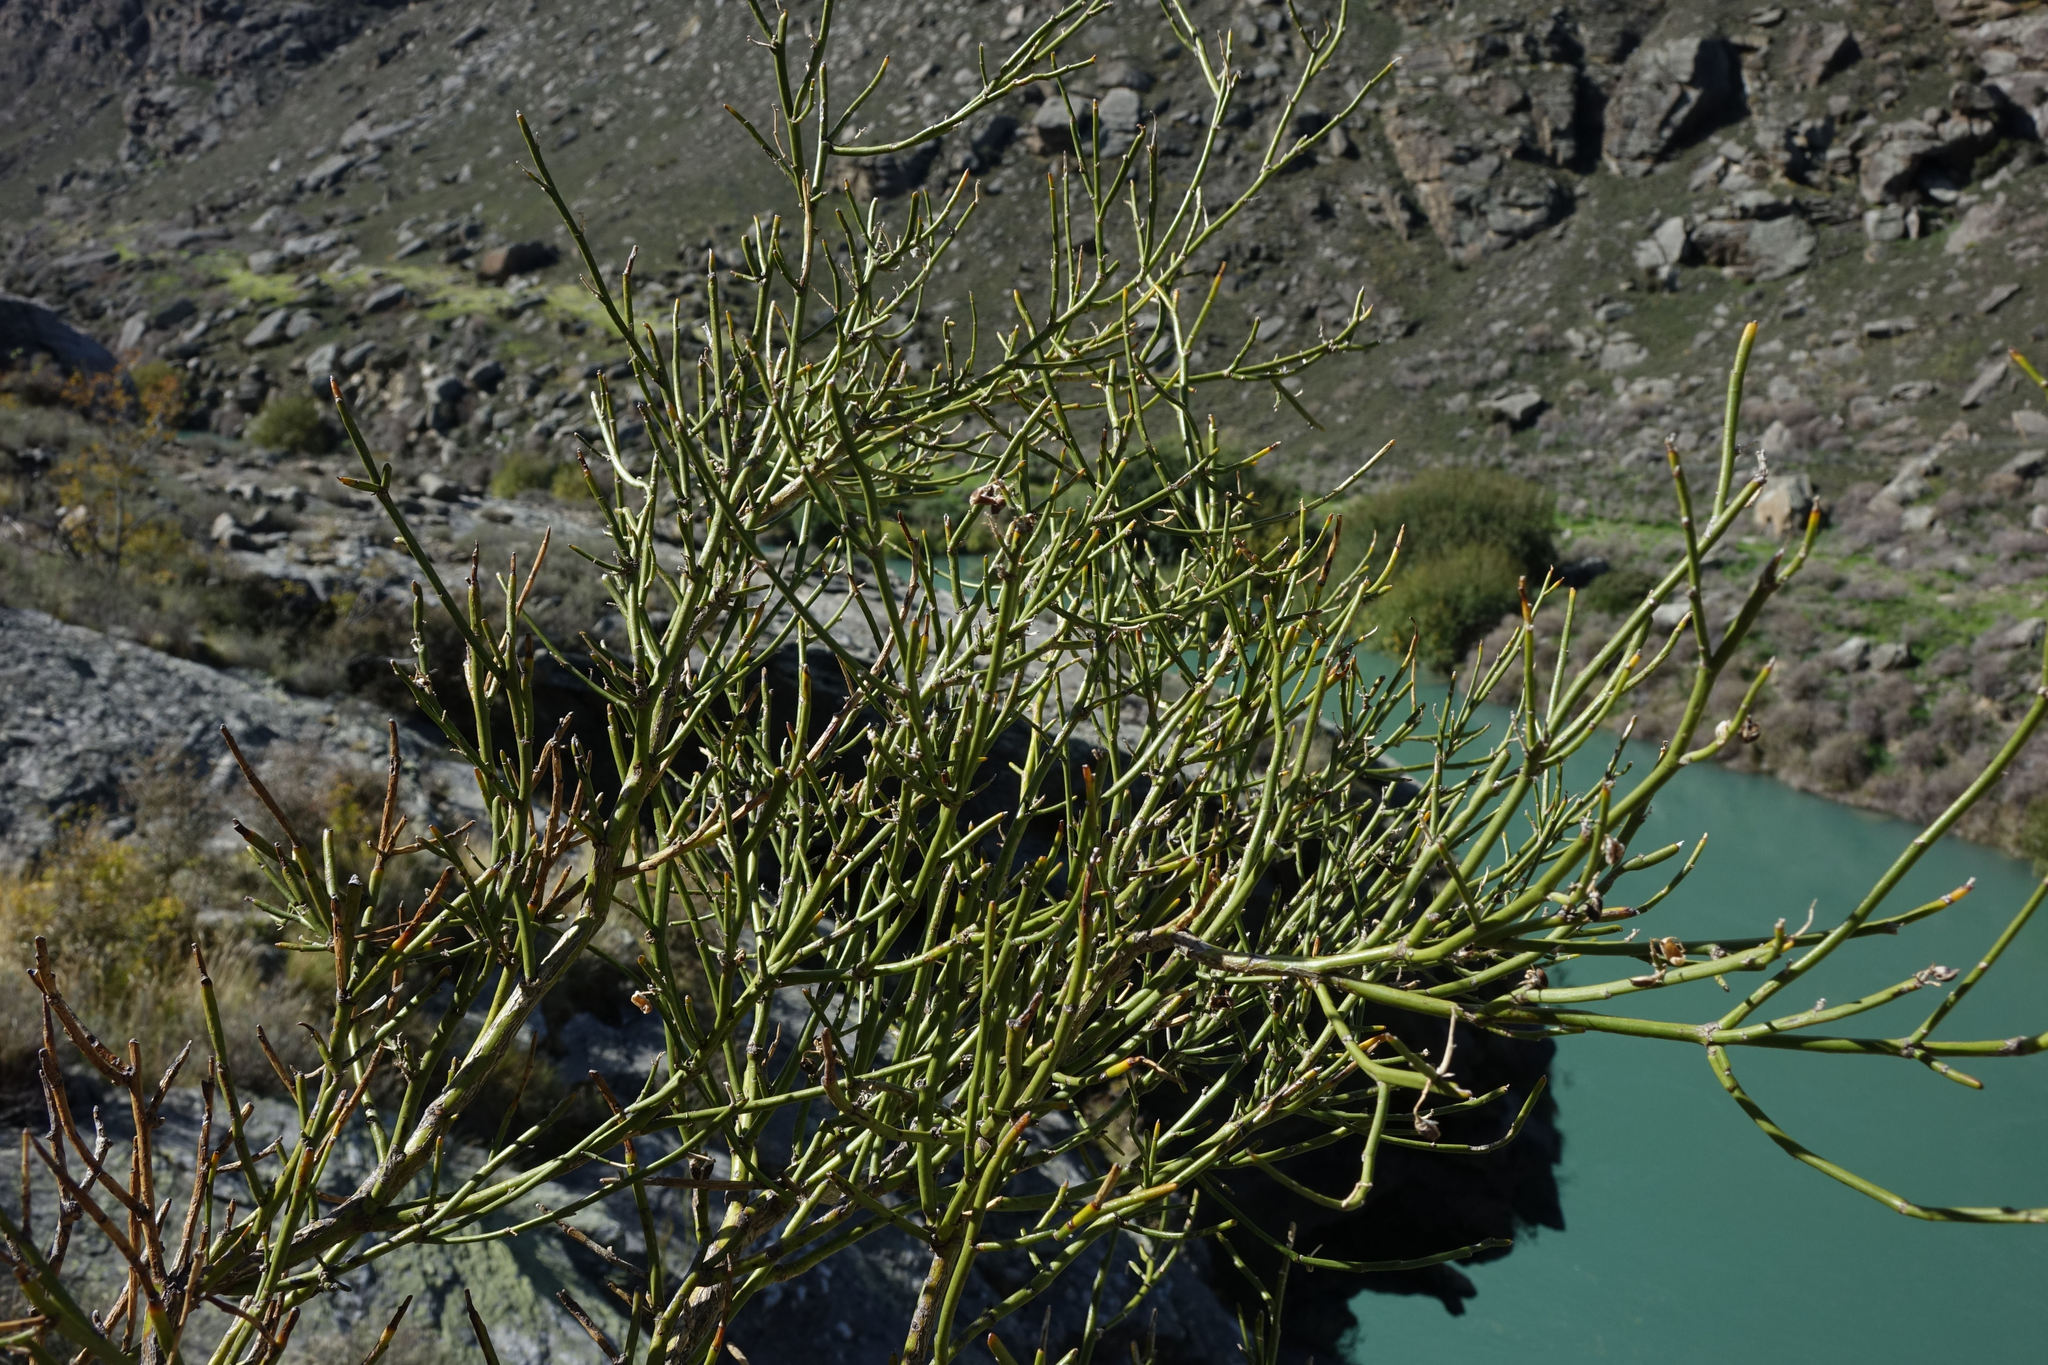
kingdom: Plantae
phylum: Tracheophyta
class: Magnoliopsida
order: Fabales
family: Fabaceae
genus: Carmichaelia
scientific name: Carmichaelia petriei
